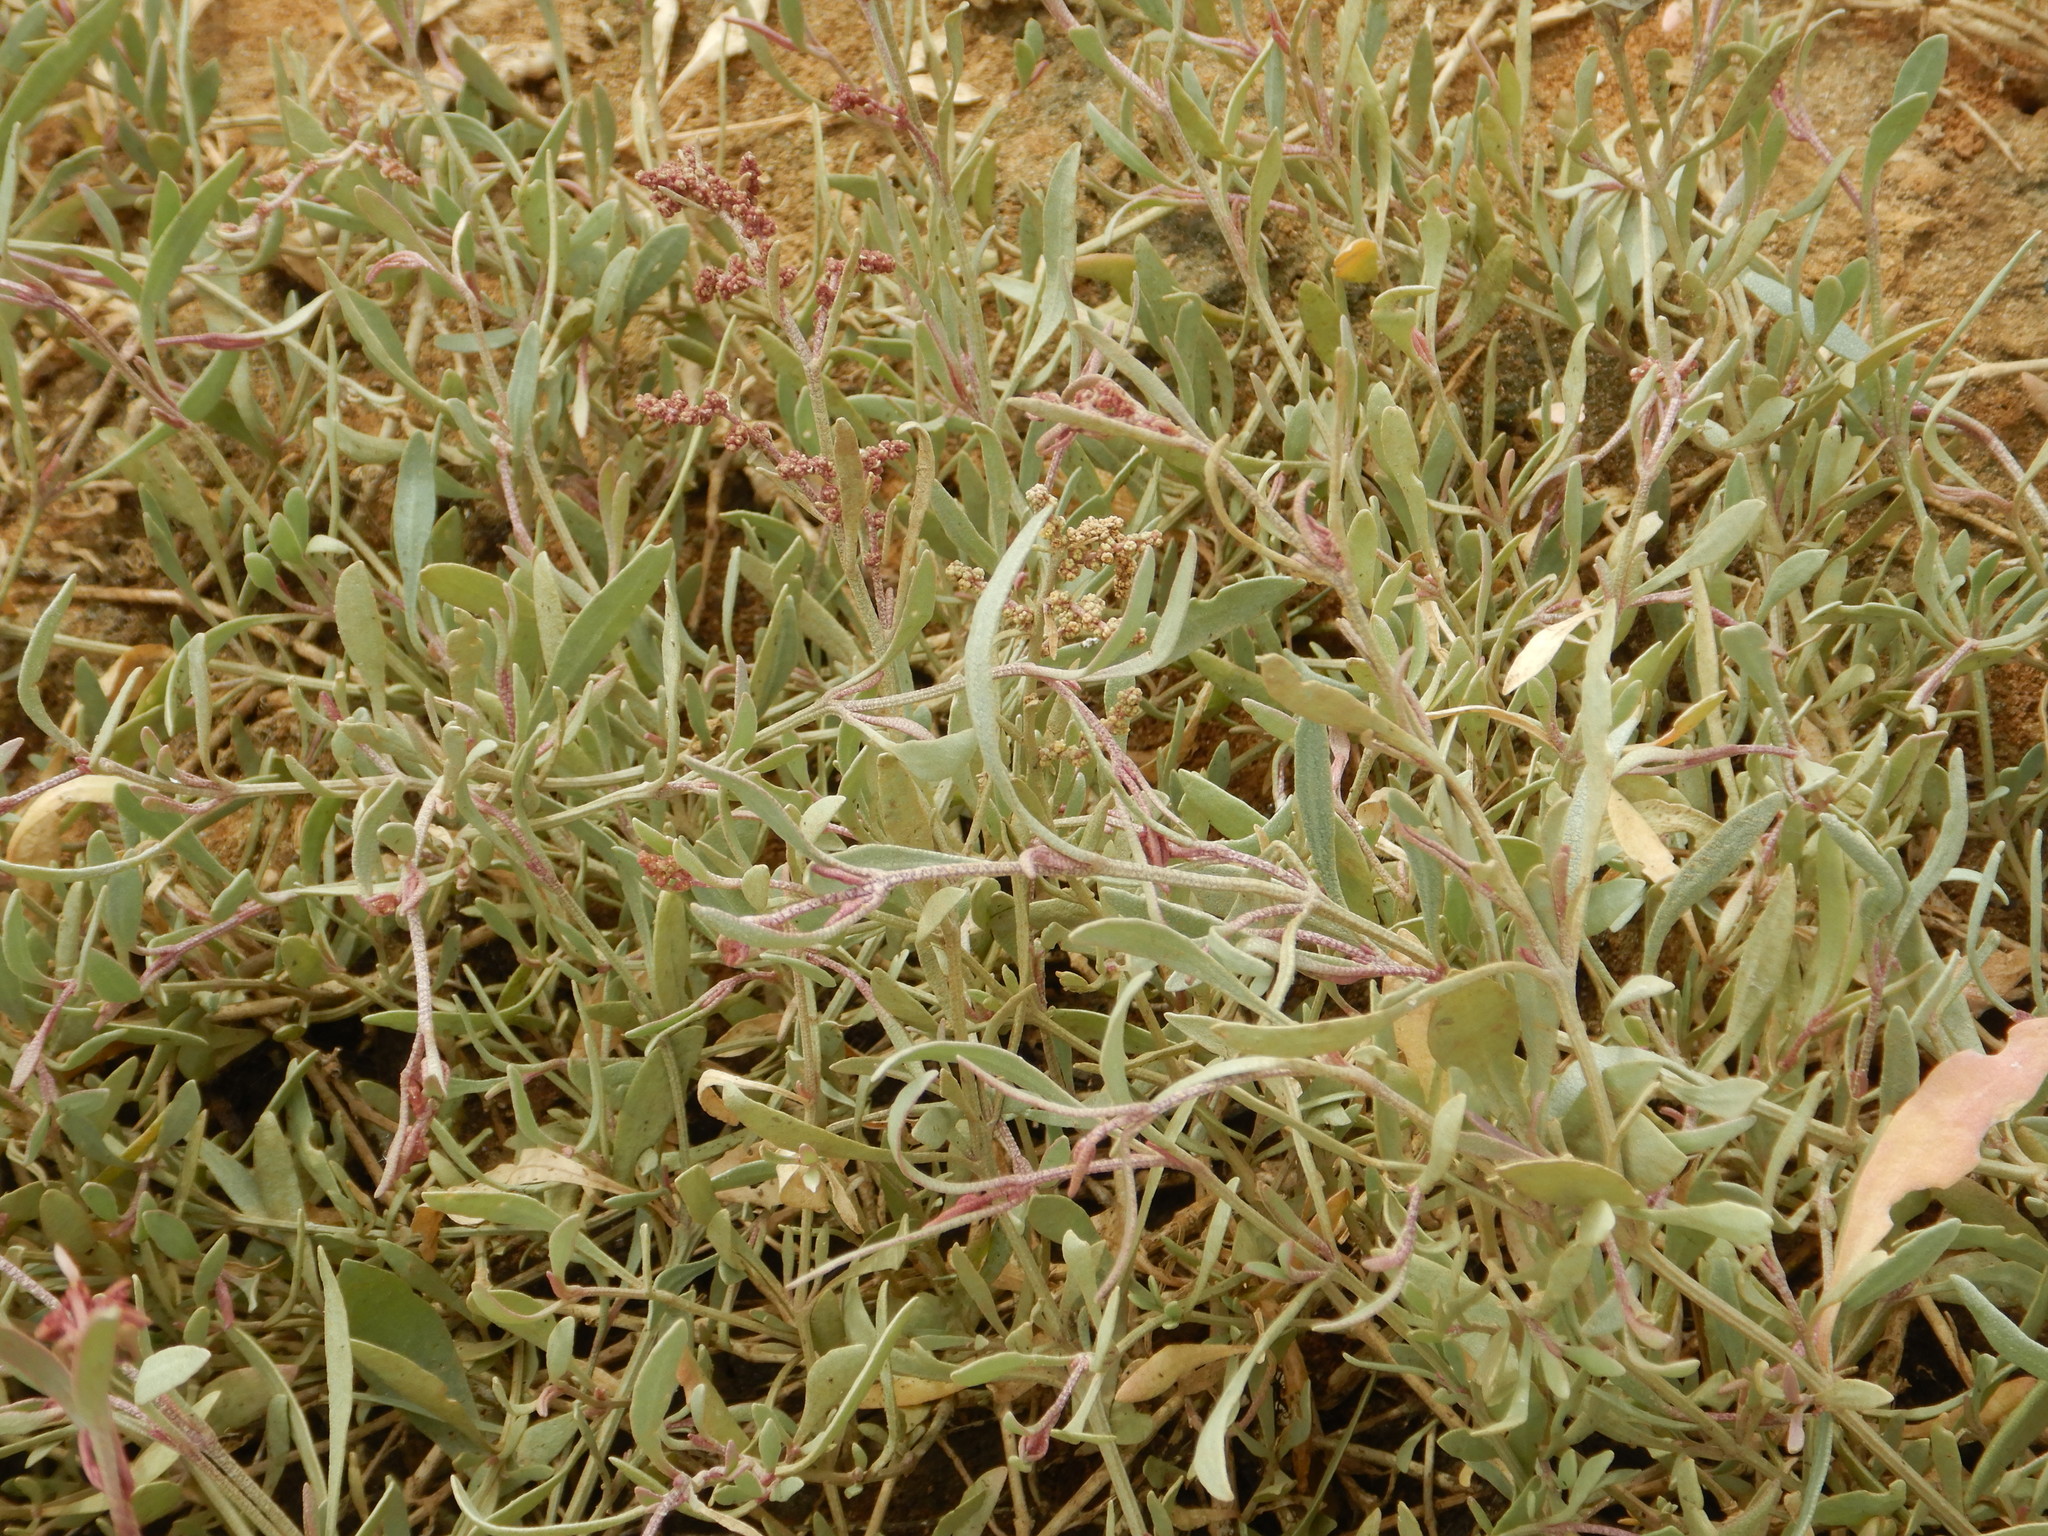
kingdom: Plantae
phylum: Tracheophyta
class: Magnoliopsida
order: Caryophyllales
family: Amaranthaceae
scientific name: Amaranthaceae
